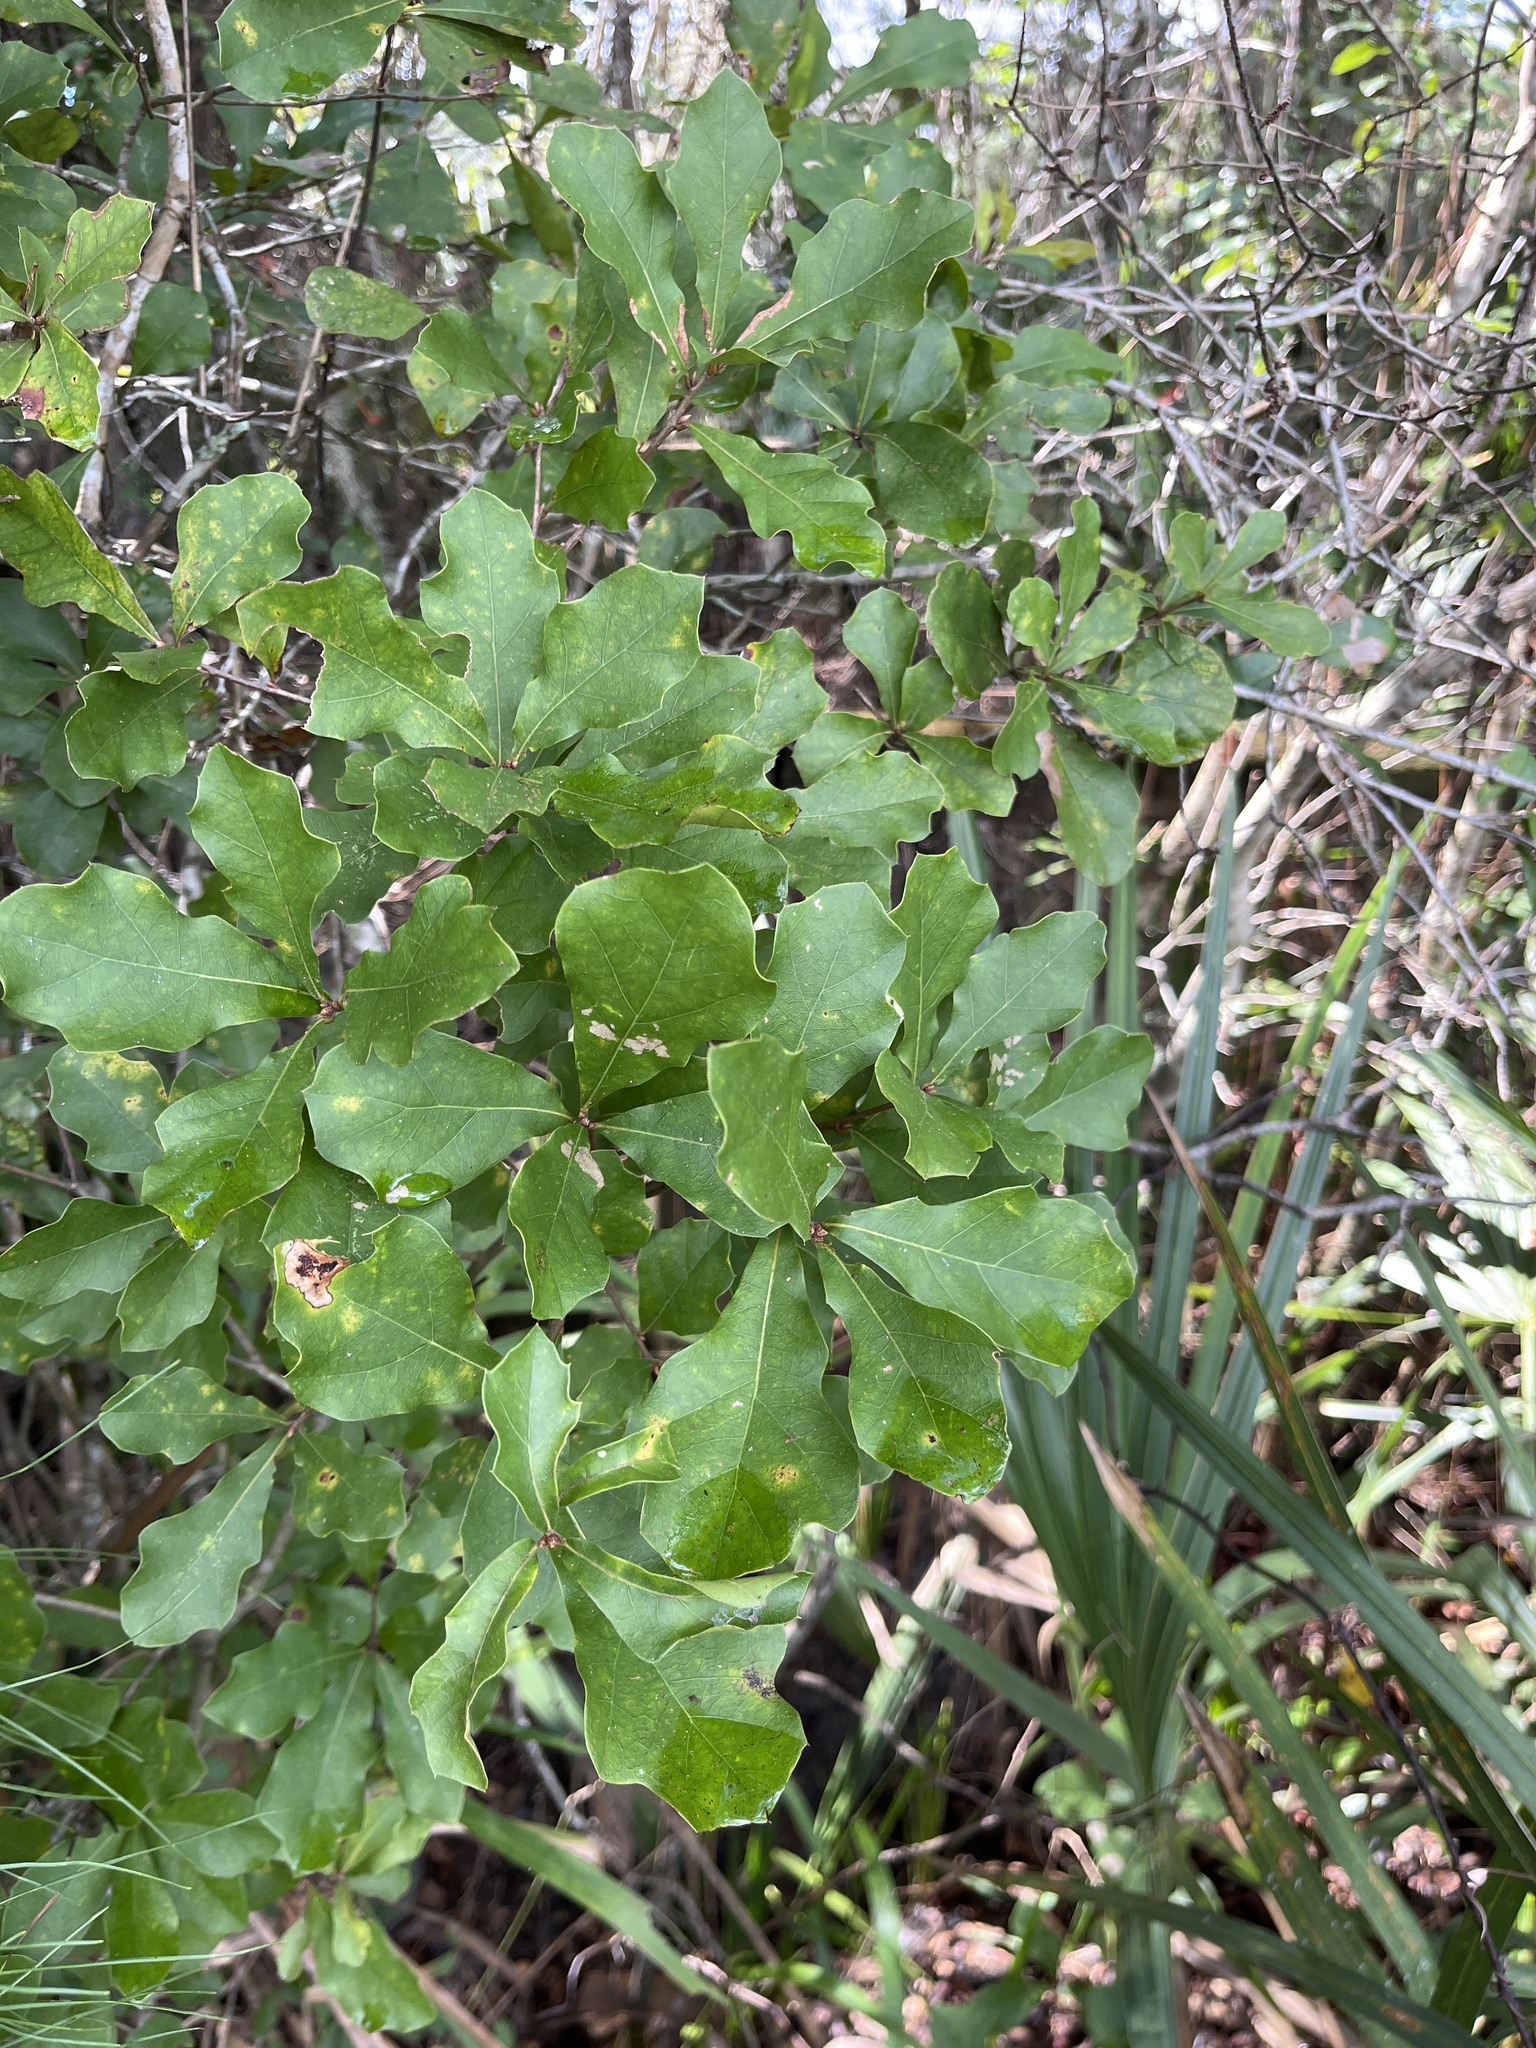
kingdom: Plantae
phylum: Tracheophyta
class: Magnoliopsida
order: Fagales
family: Fagaceae
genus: Quercus
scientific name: Quercus nigra
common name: Water oak
